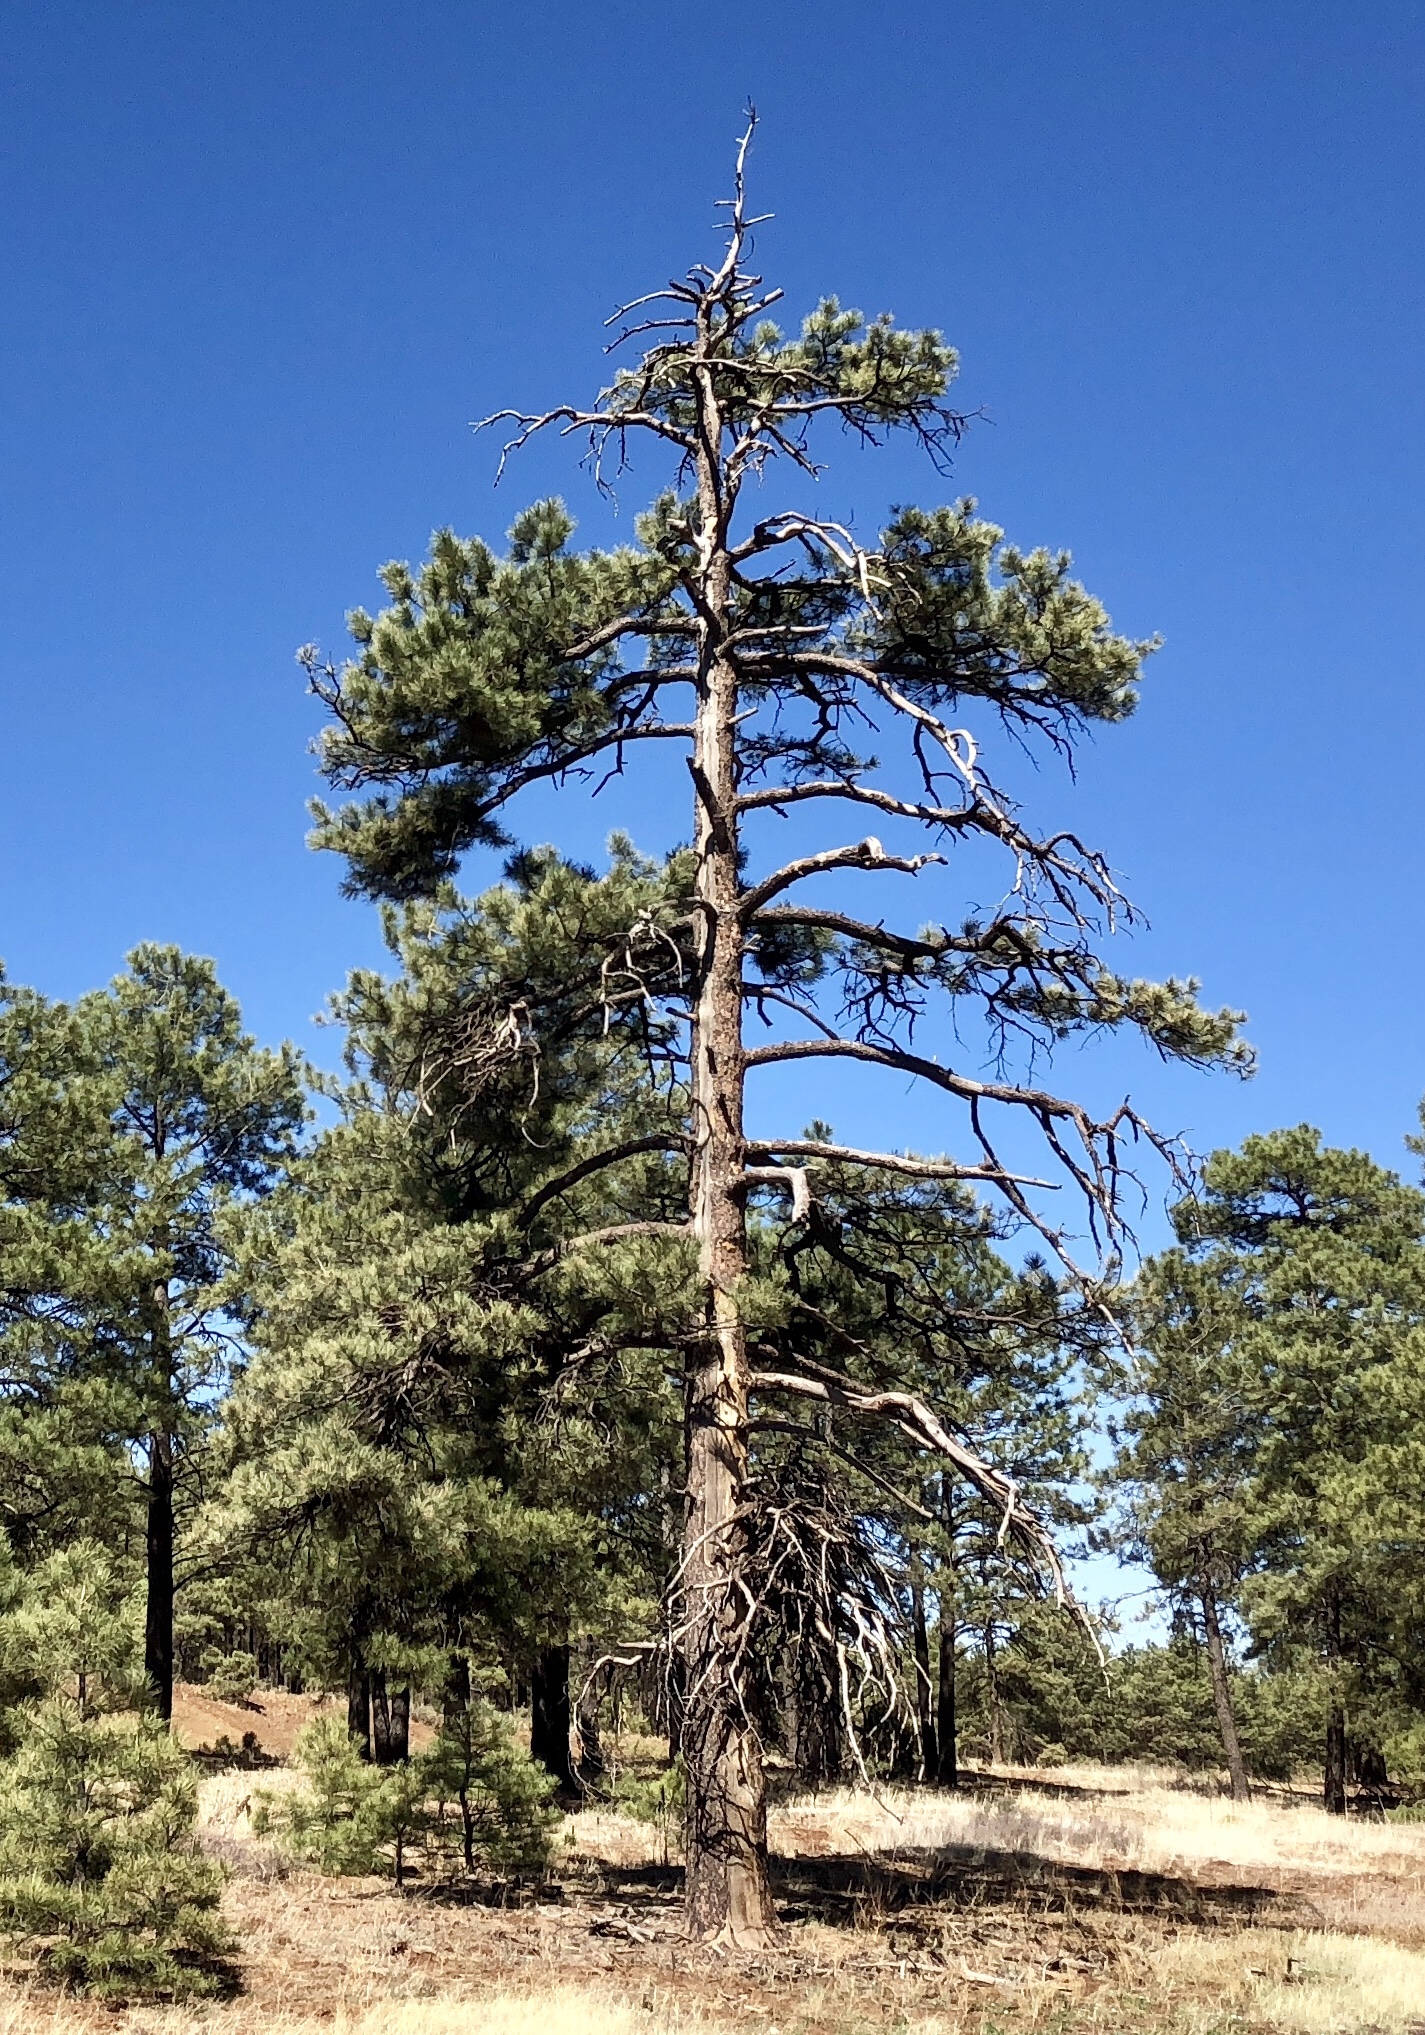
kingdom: Plantae
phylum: Tracheophyta
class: Pinopsida
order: Pinales
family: Pinaceae
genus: Pinus
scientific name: Pinus ponderosa
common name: Western yellow-pine
